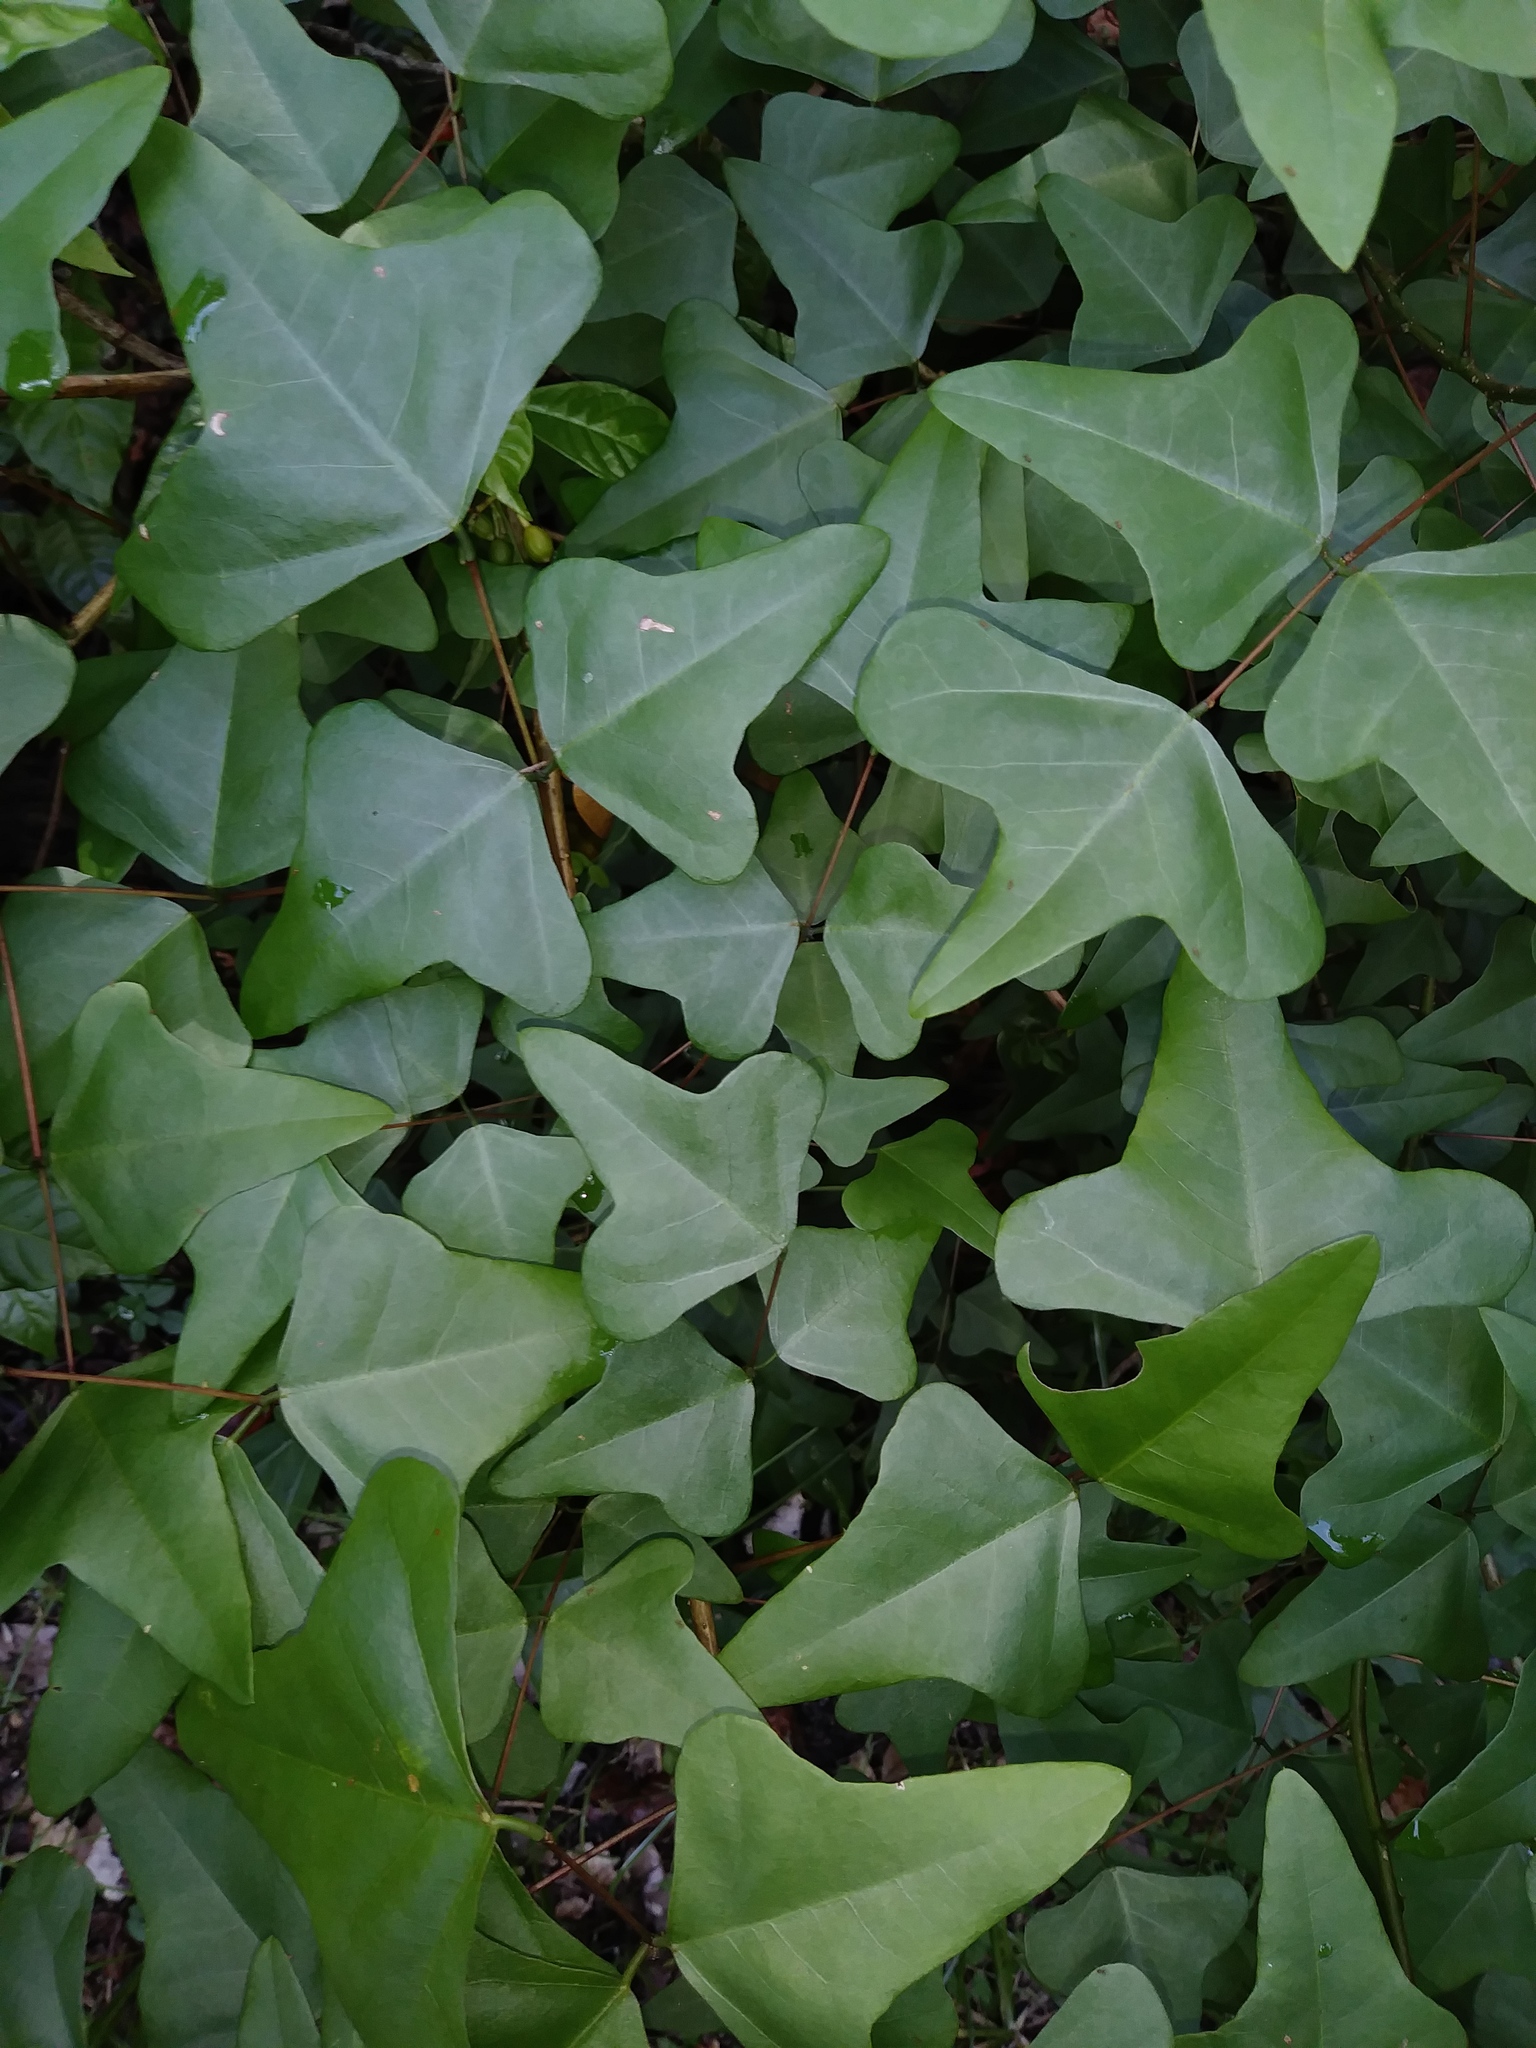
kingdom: Plantae
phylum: Tracheophyta
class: Magnoliopsida
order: Fabales
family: Fabaceae
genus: Erythrina
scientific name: Erythrina herbacea
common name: Coral-bean
